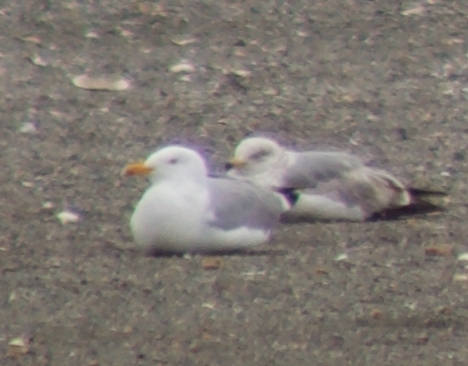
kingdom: Animalia
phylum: Chordata
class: Aves
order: Charadriiformes
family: Laridae
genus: Larus
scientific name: Larus argentatus
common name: Herring gull
